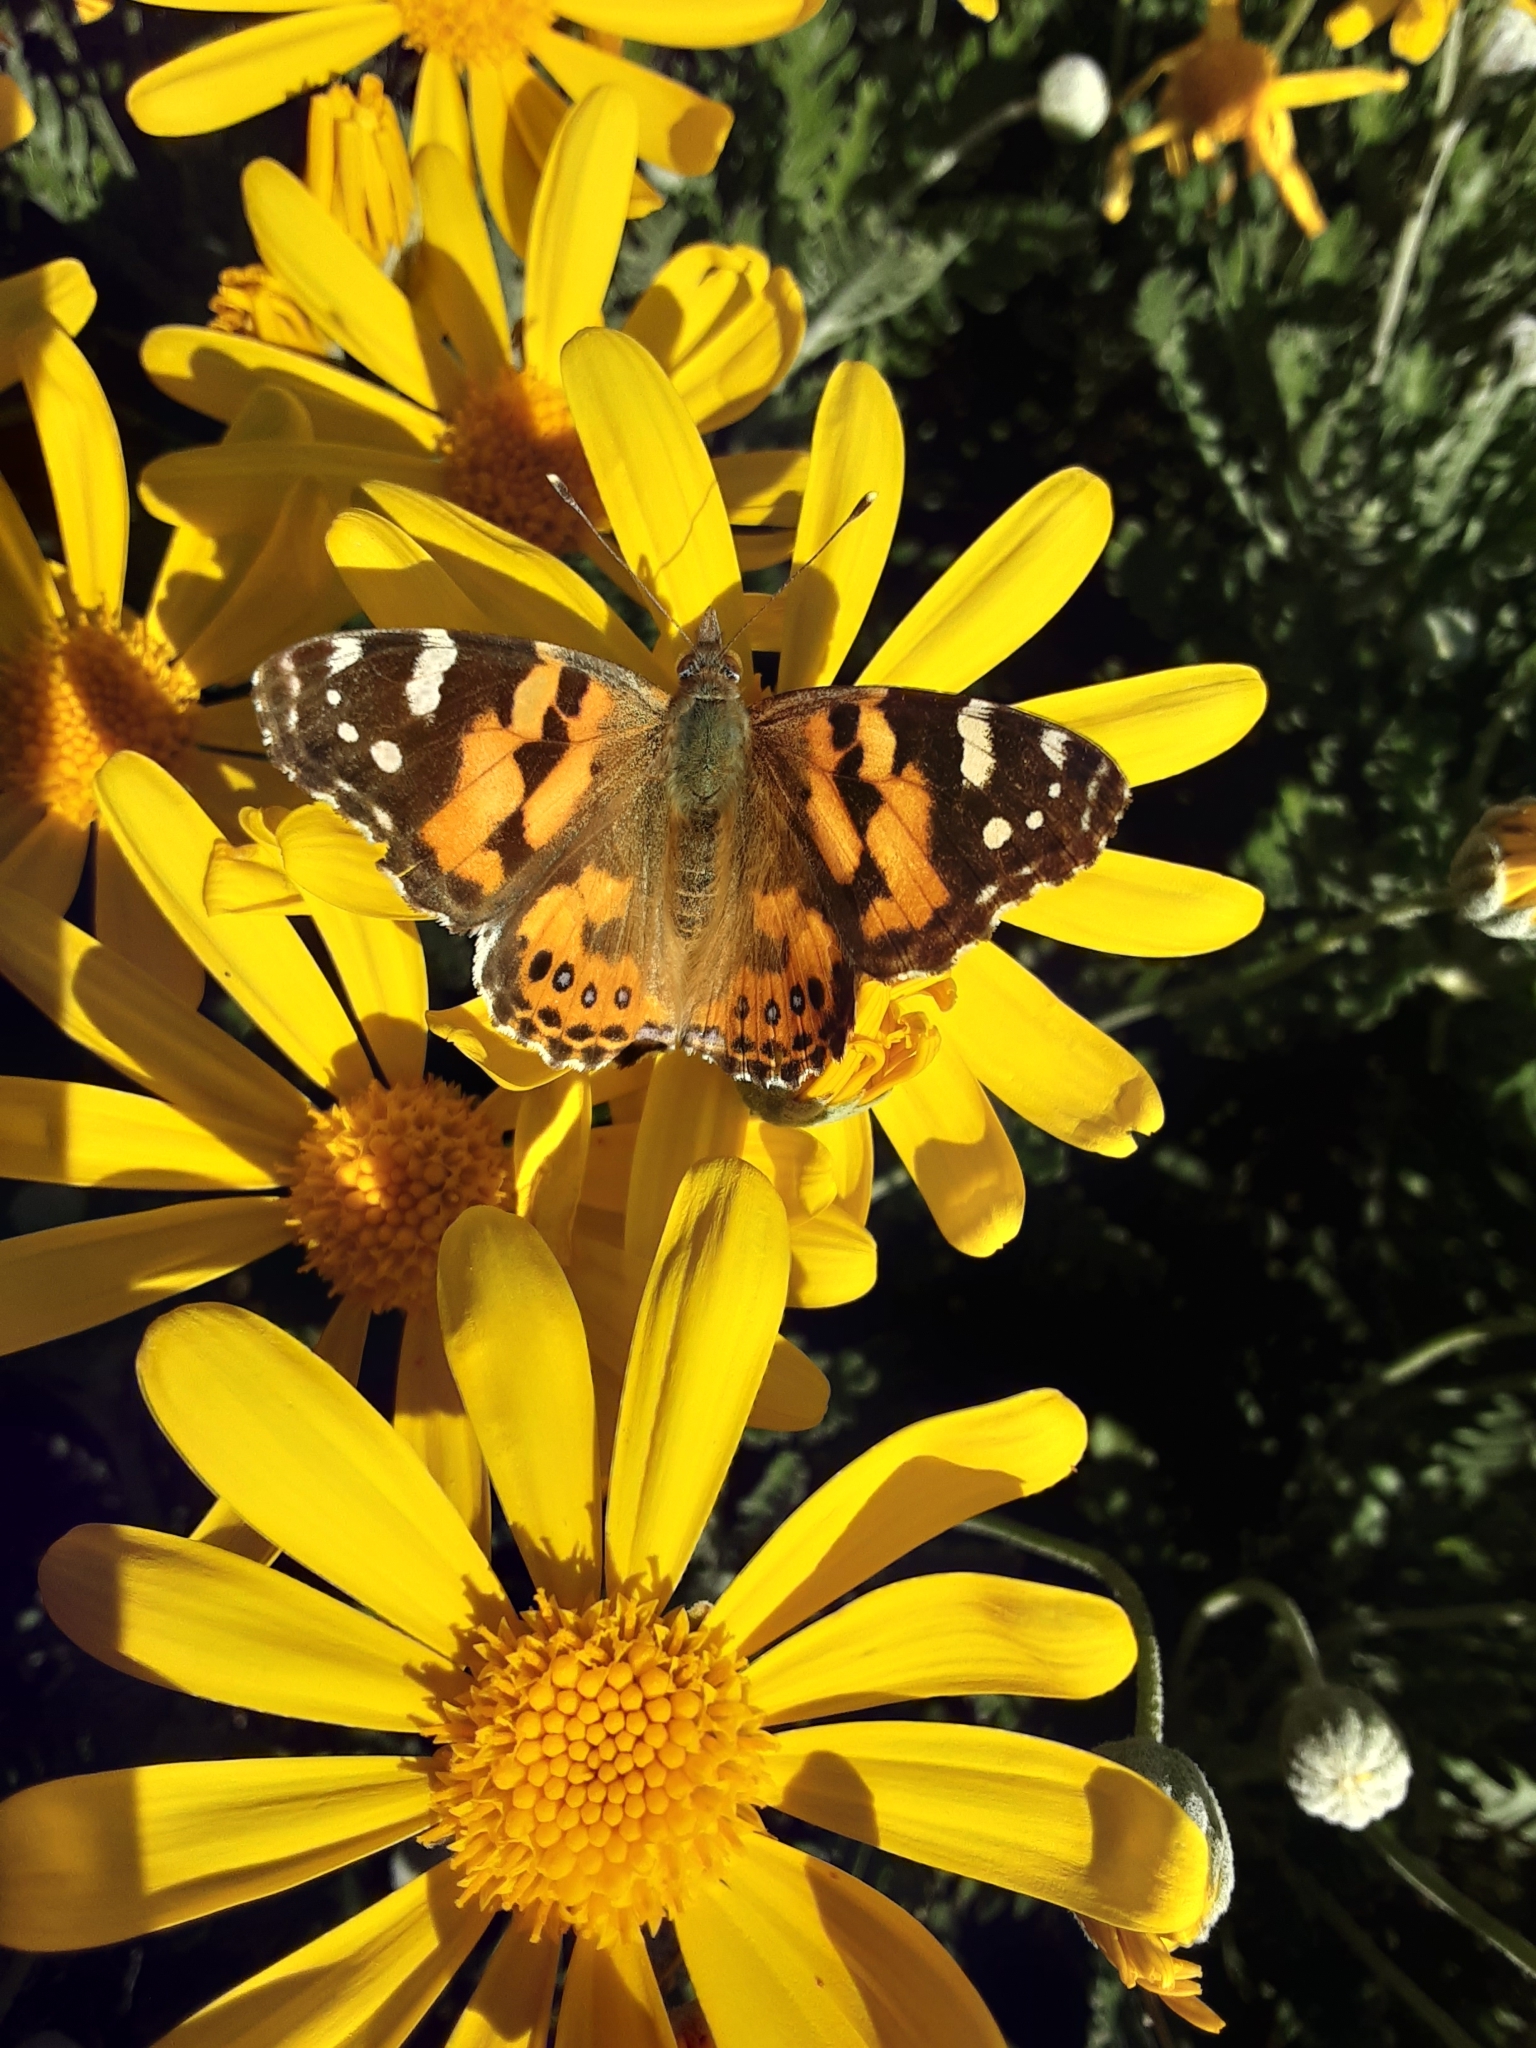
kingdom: Animalia
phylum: Arthropoda
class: Insecta
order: Lepidoptera
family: Nymphalidae
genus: Vanessa
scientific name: Vanessa kershawi
